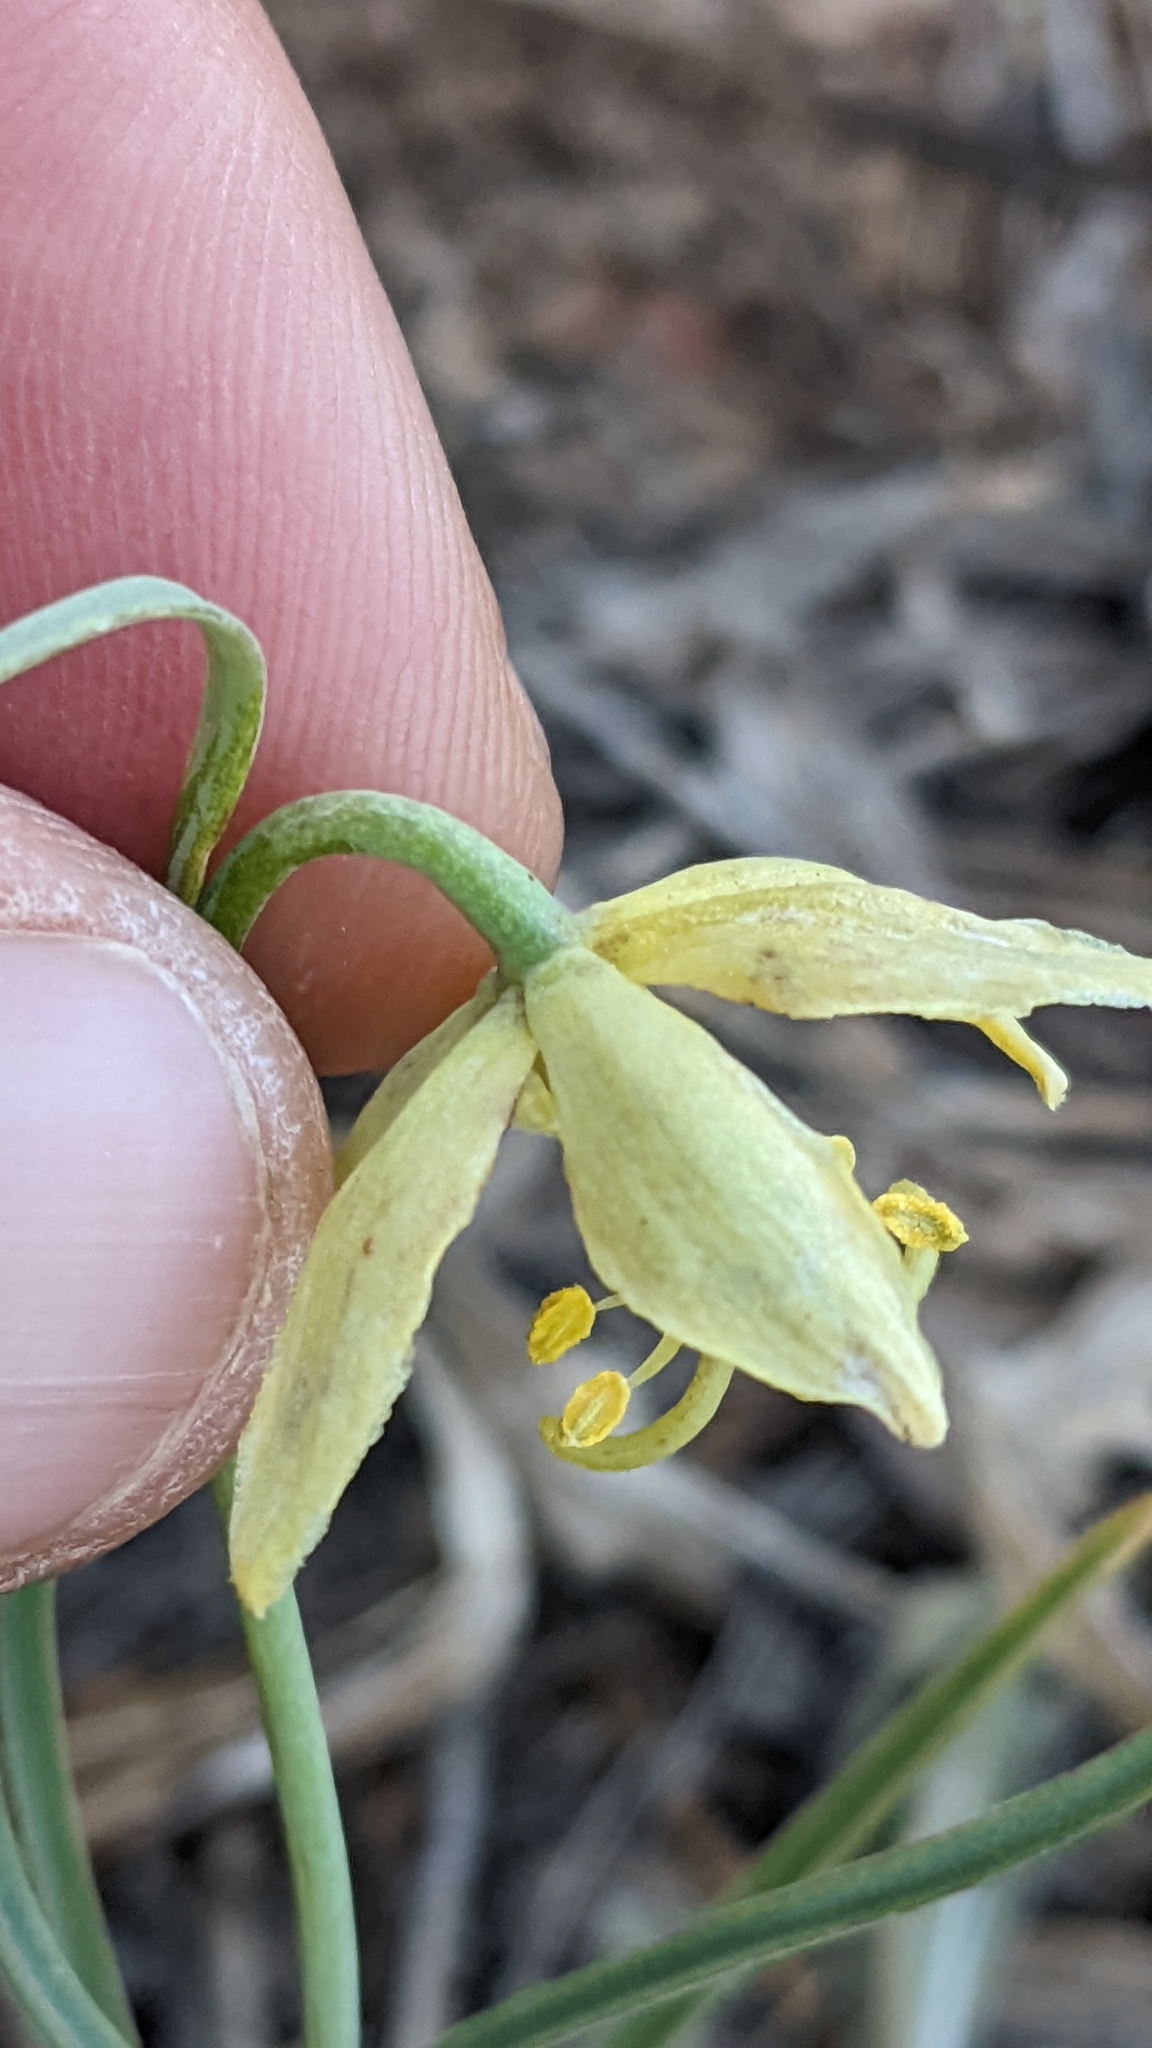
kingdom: Plantae
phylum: Tracheophyta
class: Liliopsida
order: Liliales
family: Liliaceae
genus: Fritillaria
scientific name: Fritillaria atropurpurea
